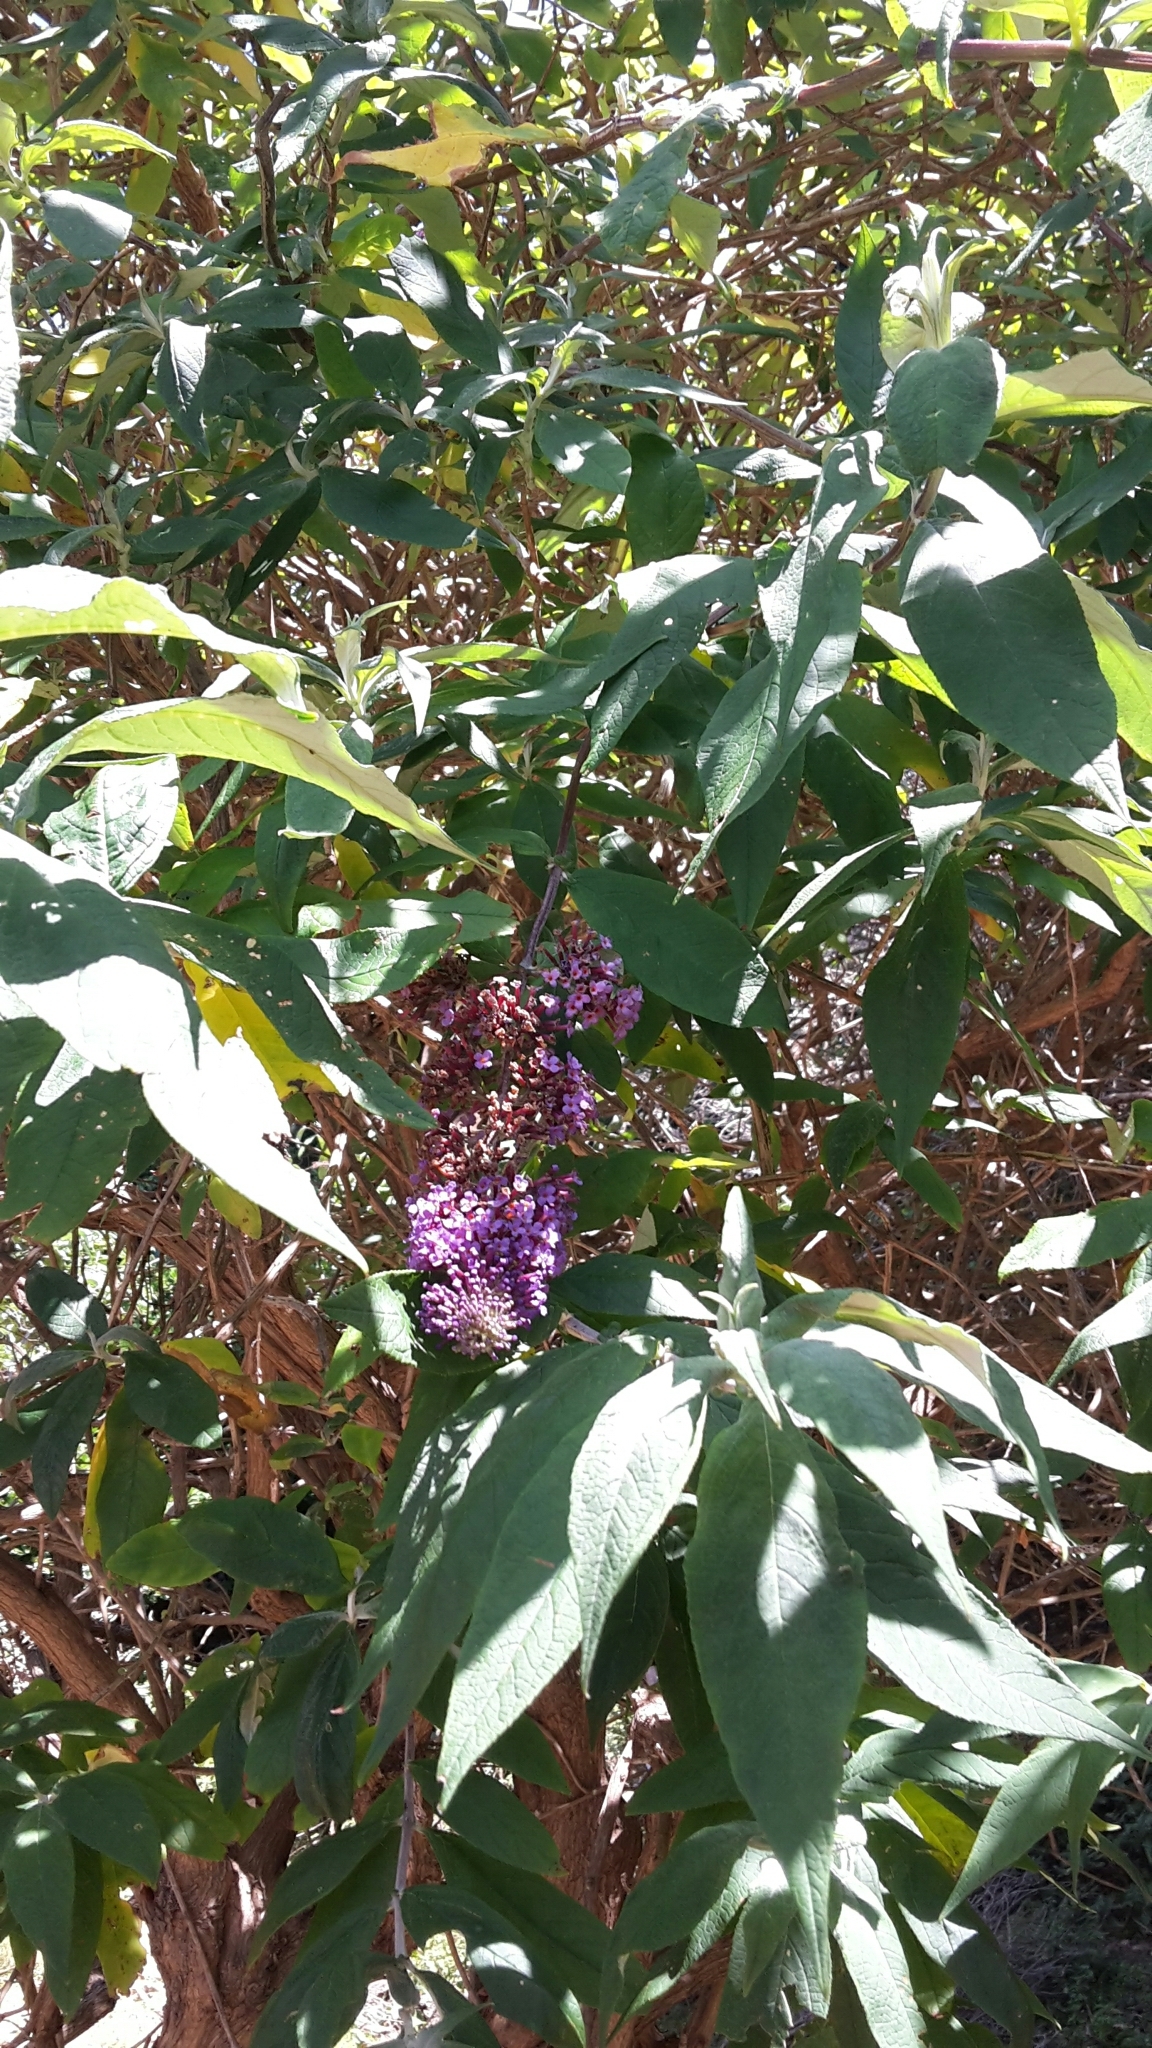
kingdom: Plantae
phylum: Tracheophyta
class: Magnoliopsida
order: Lamiales
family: Scrophulariaceae
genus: Buddleja
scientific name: Buddleja davidii
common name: Butterfly-bush
